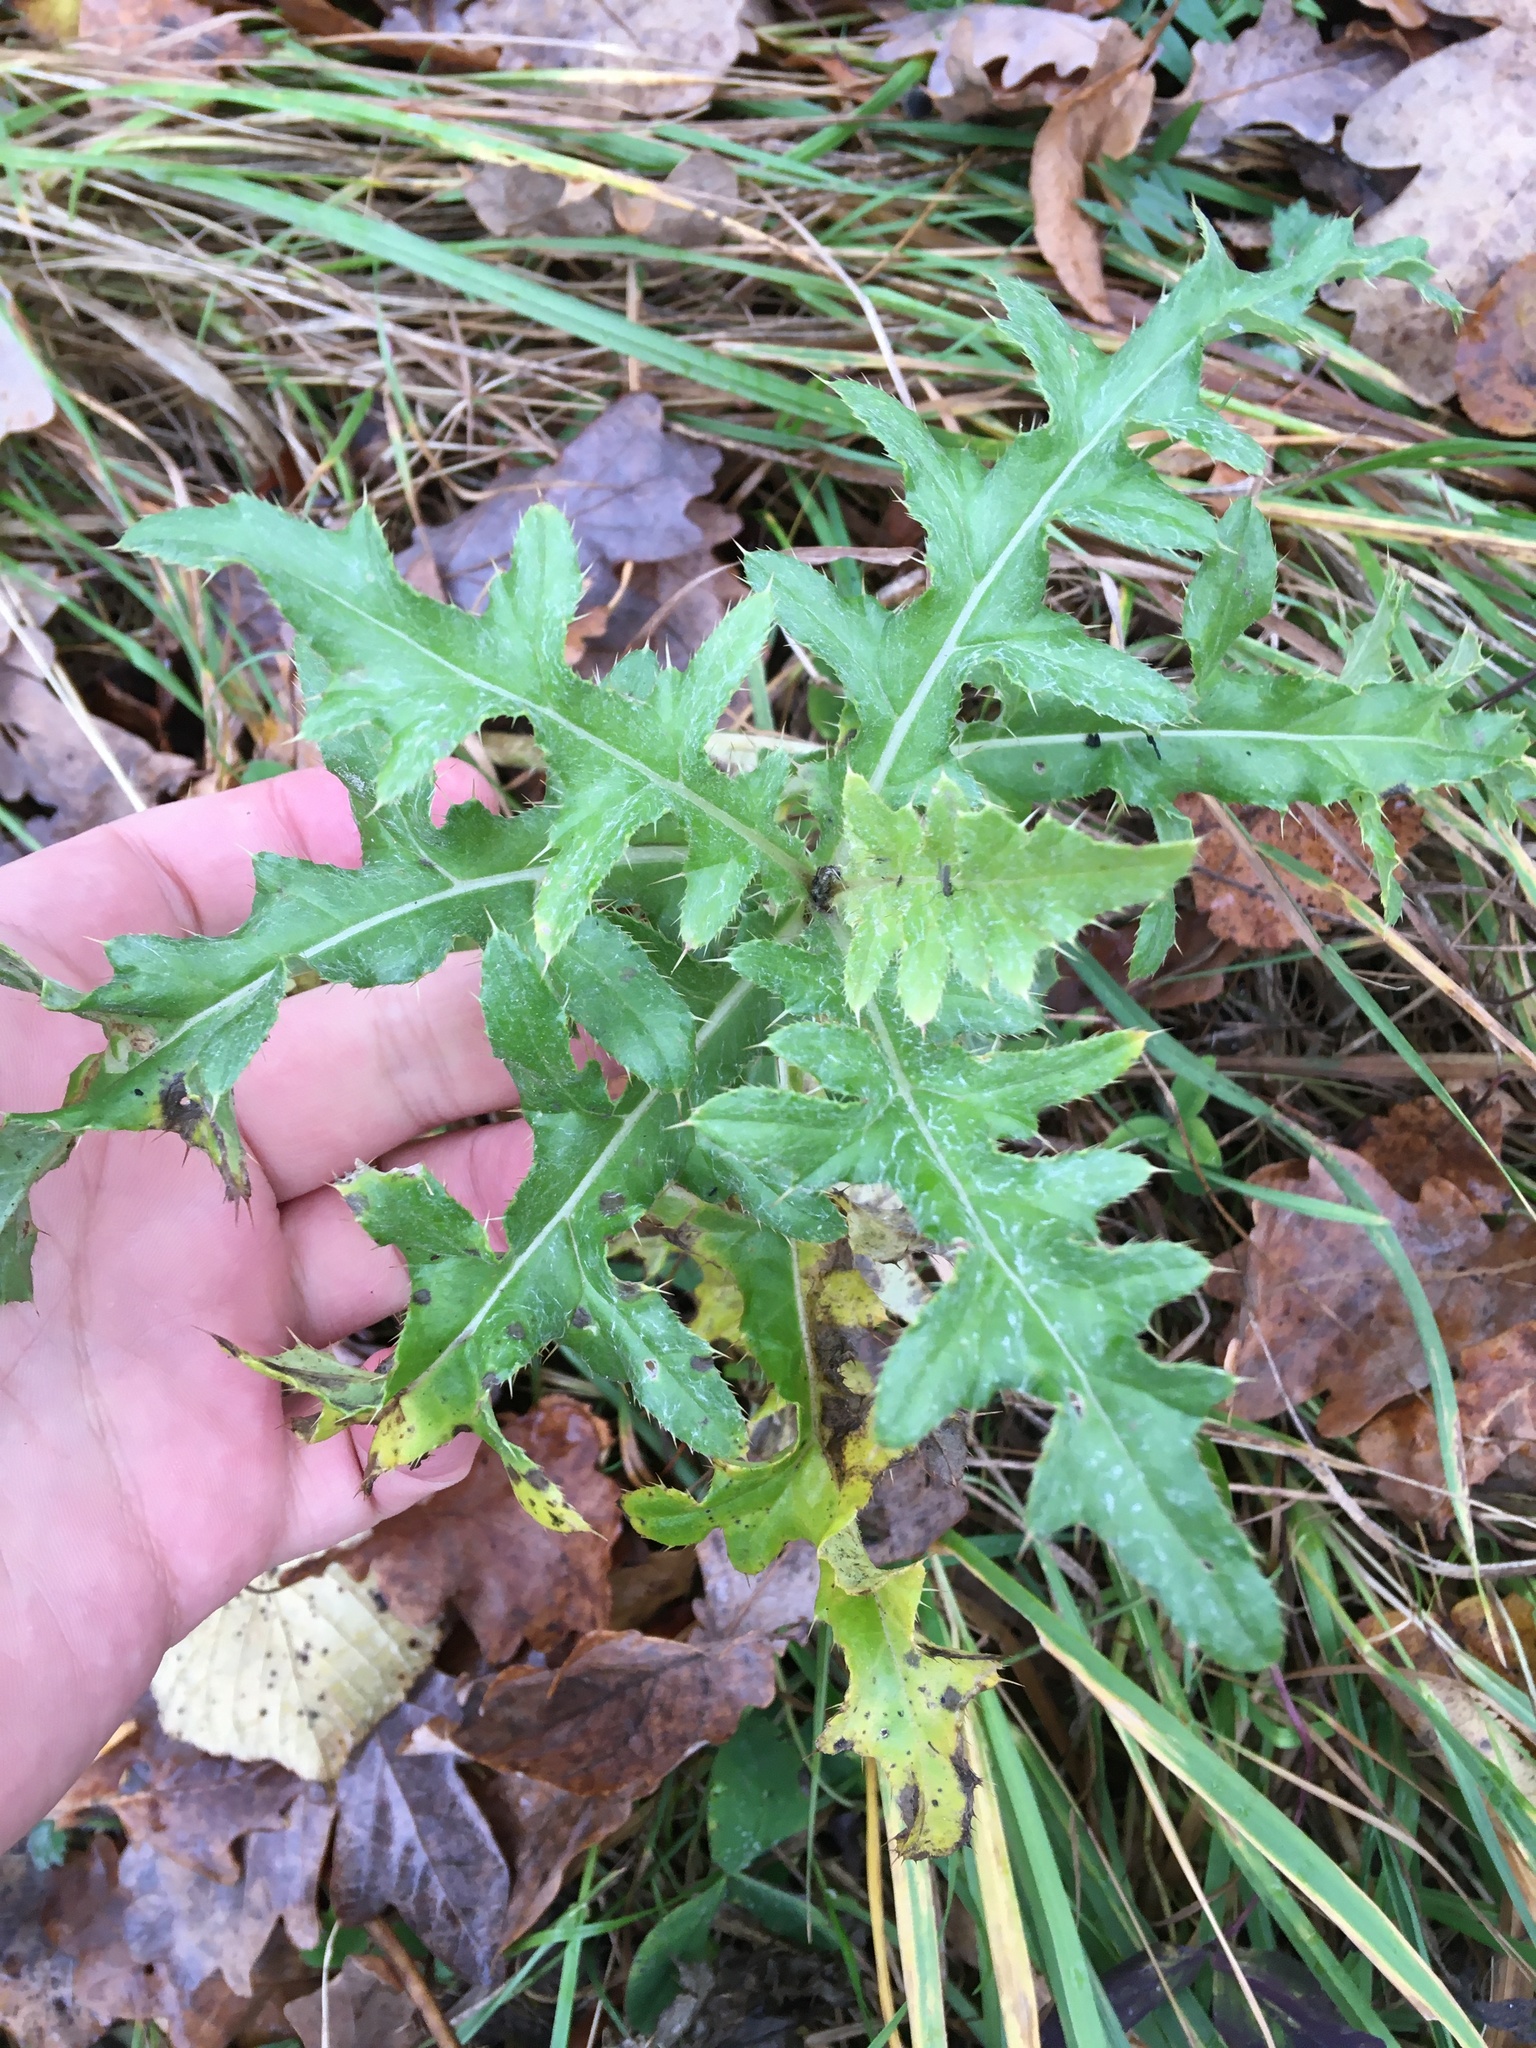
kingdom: Plantae
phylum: Tracheophyta
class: Magnoliopsida
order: Asterales
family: Asteraceae
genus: Cirsium
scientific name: Cirsium arvense
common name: Creeping thistle
